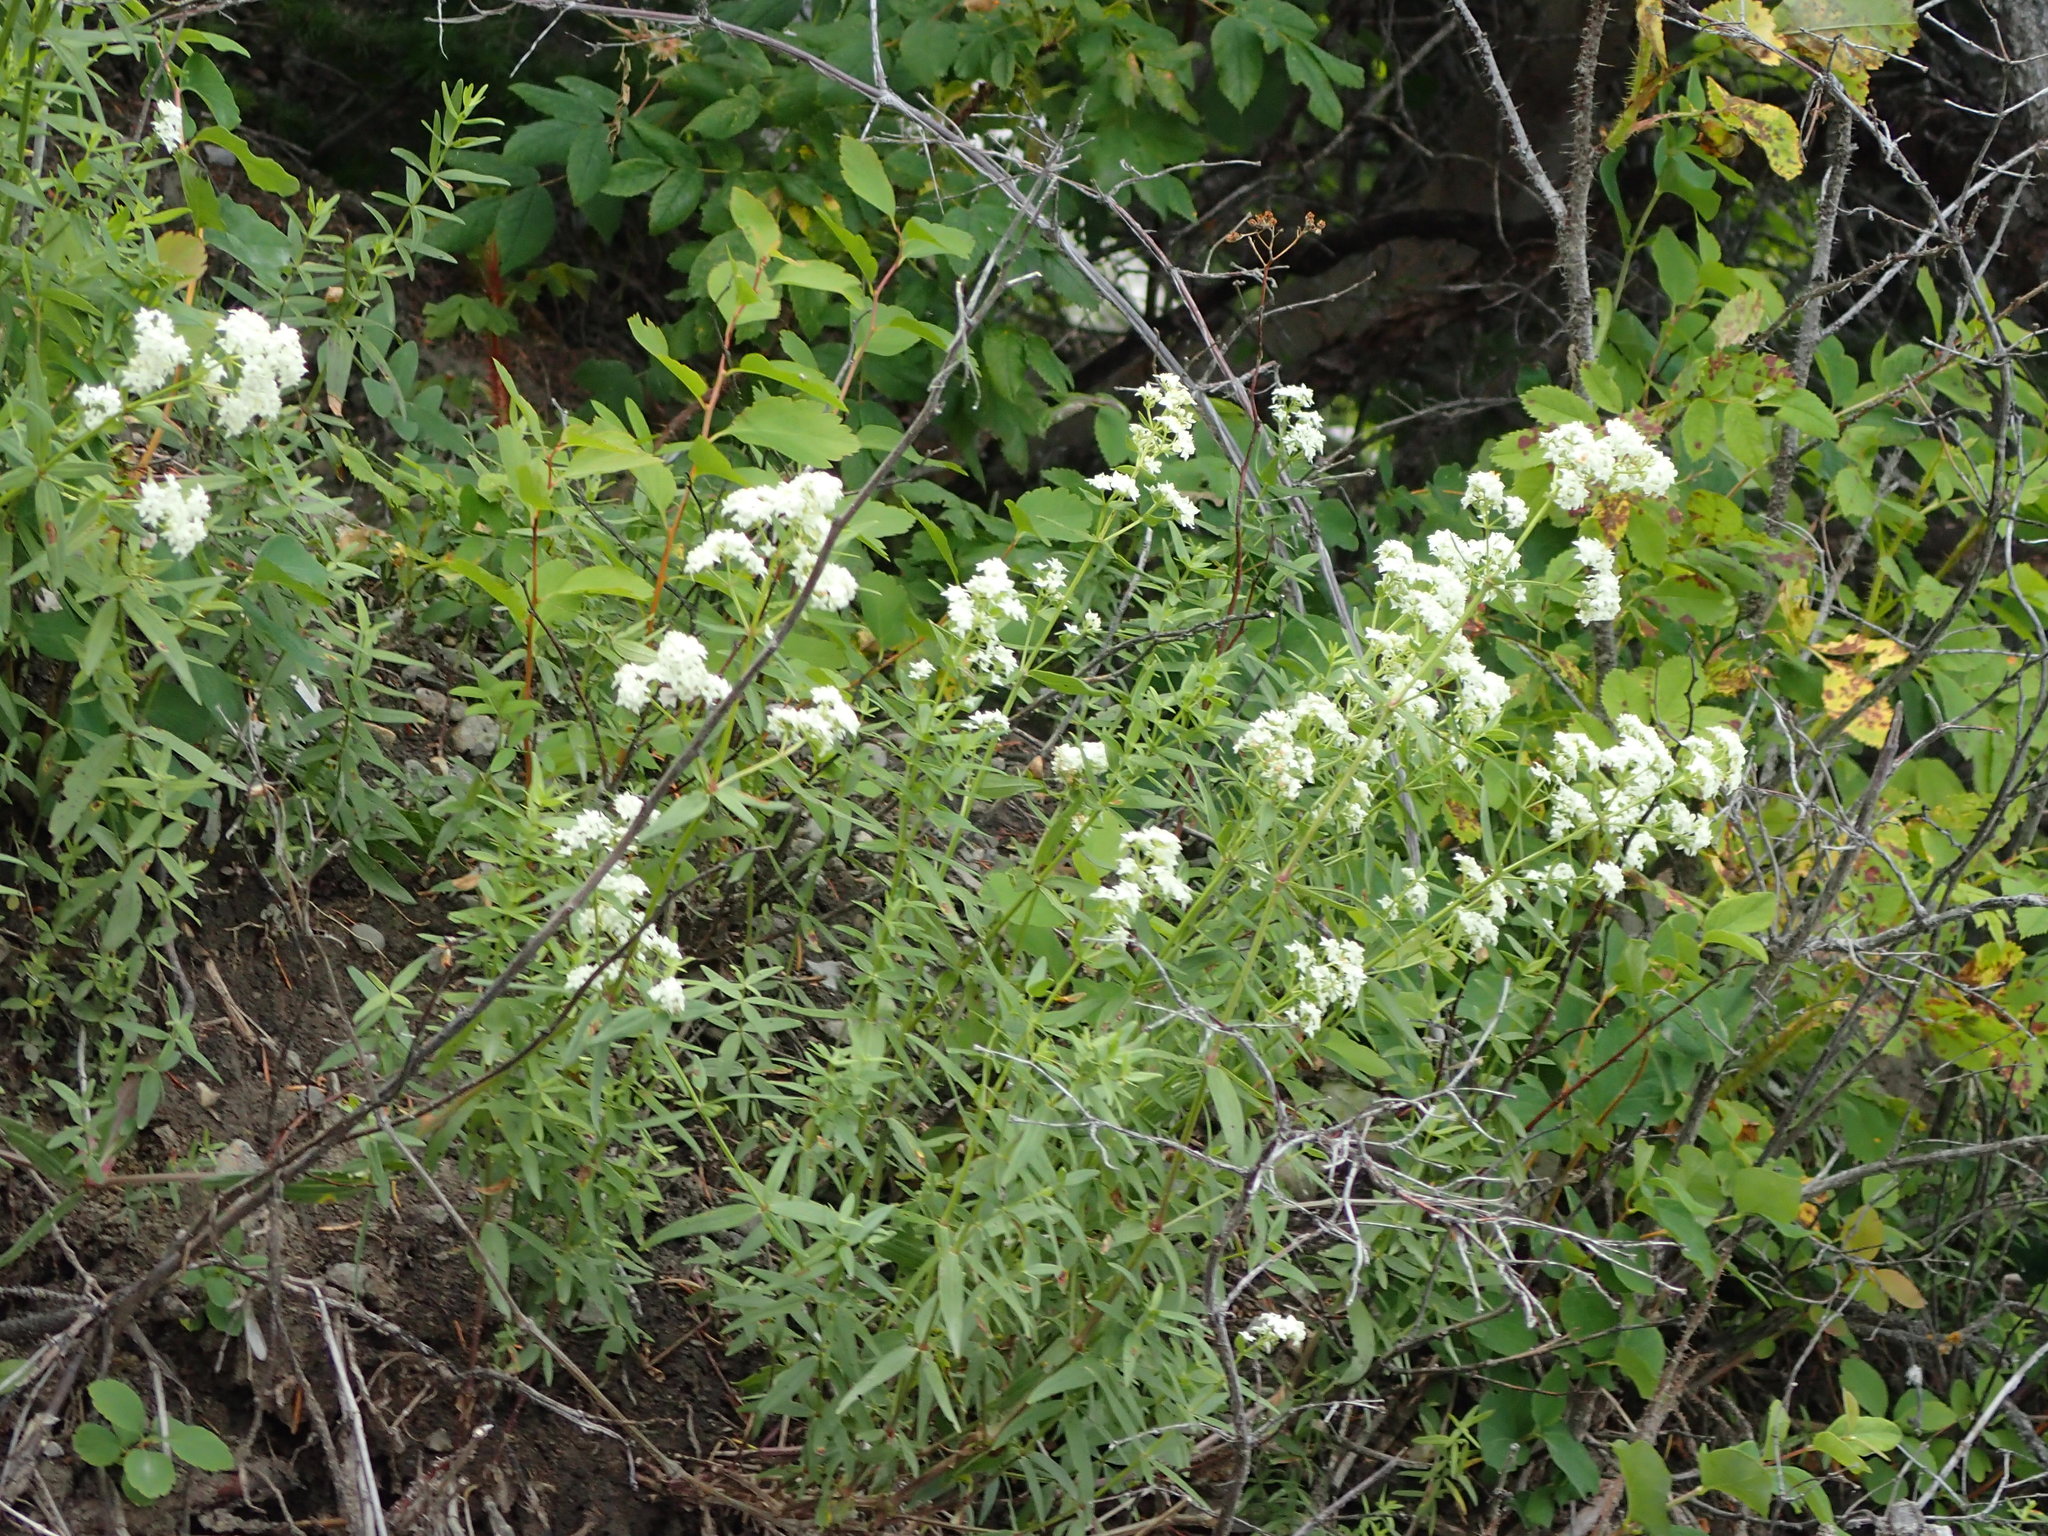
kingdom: Plantae
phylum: Tracheophyta
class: Magnoliopsida
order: Gentianales
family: Rubiaceae
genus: Galium
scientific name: Galium boreale
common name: Northern bedstraw
